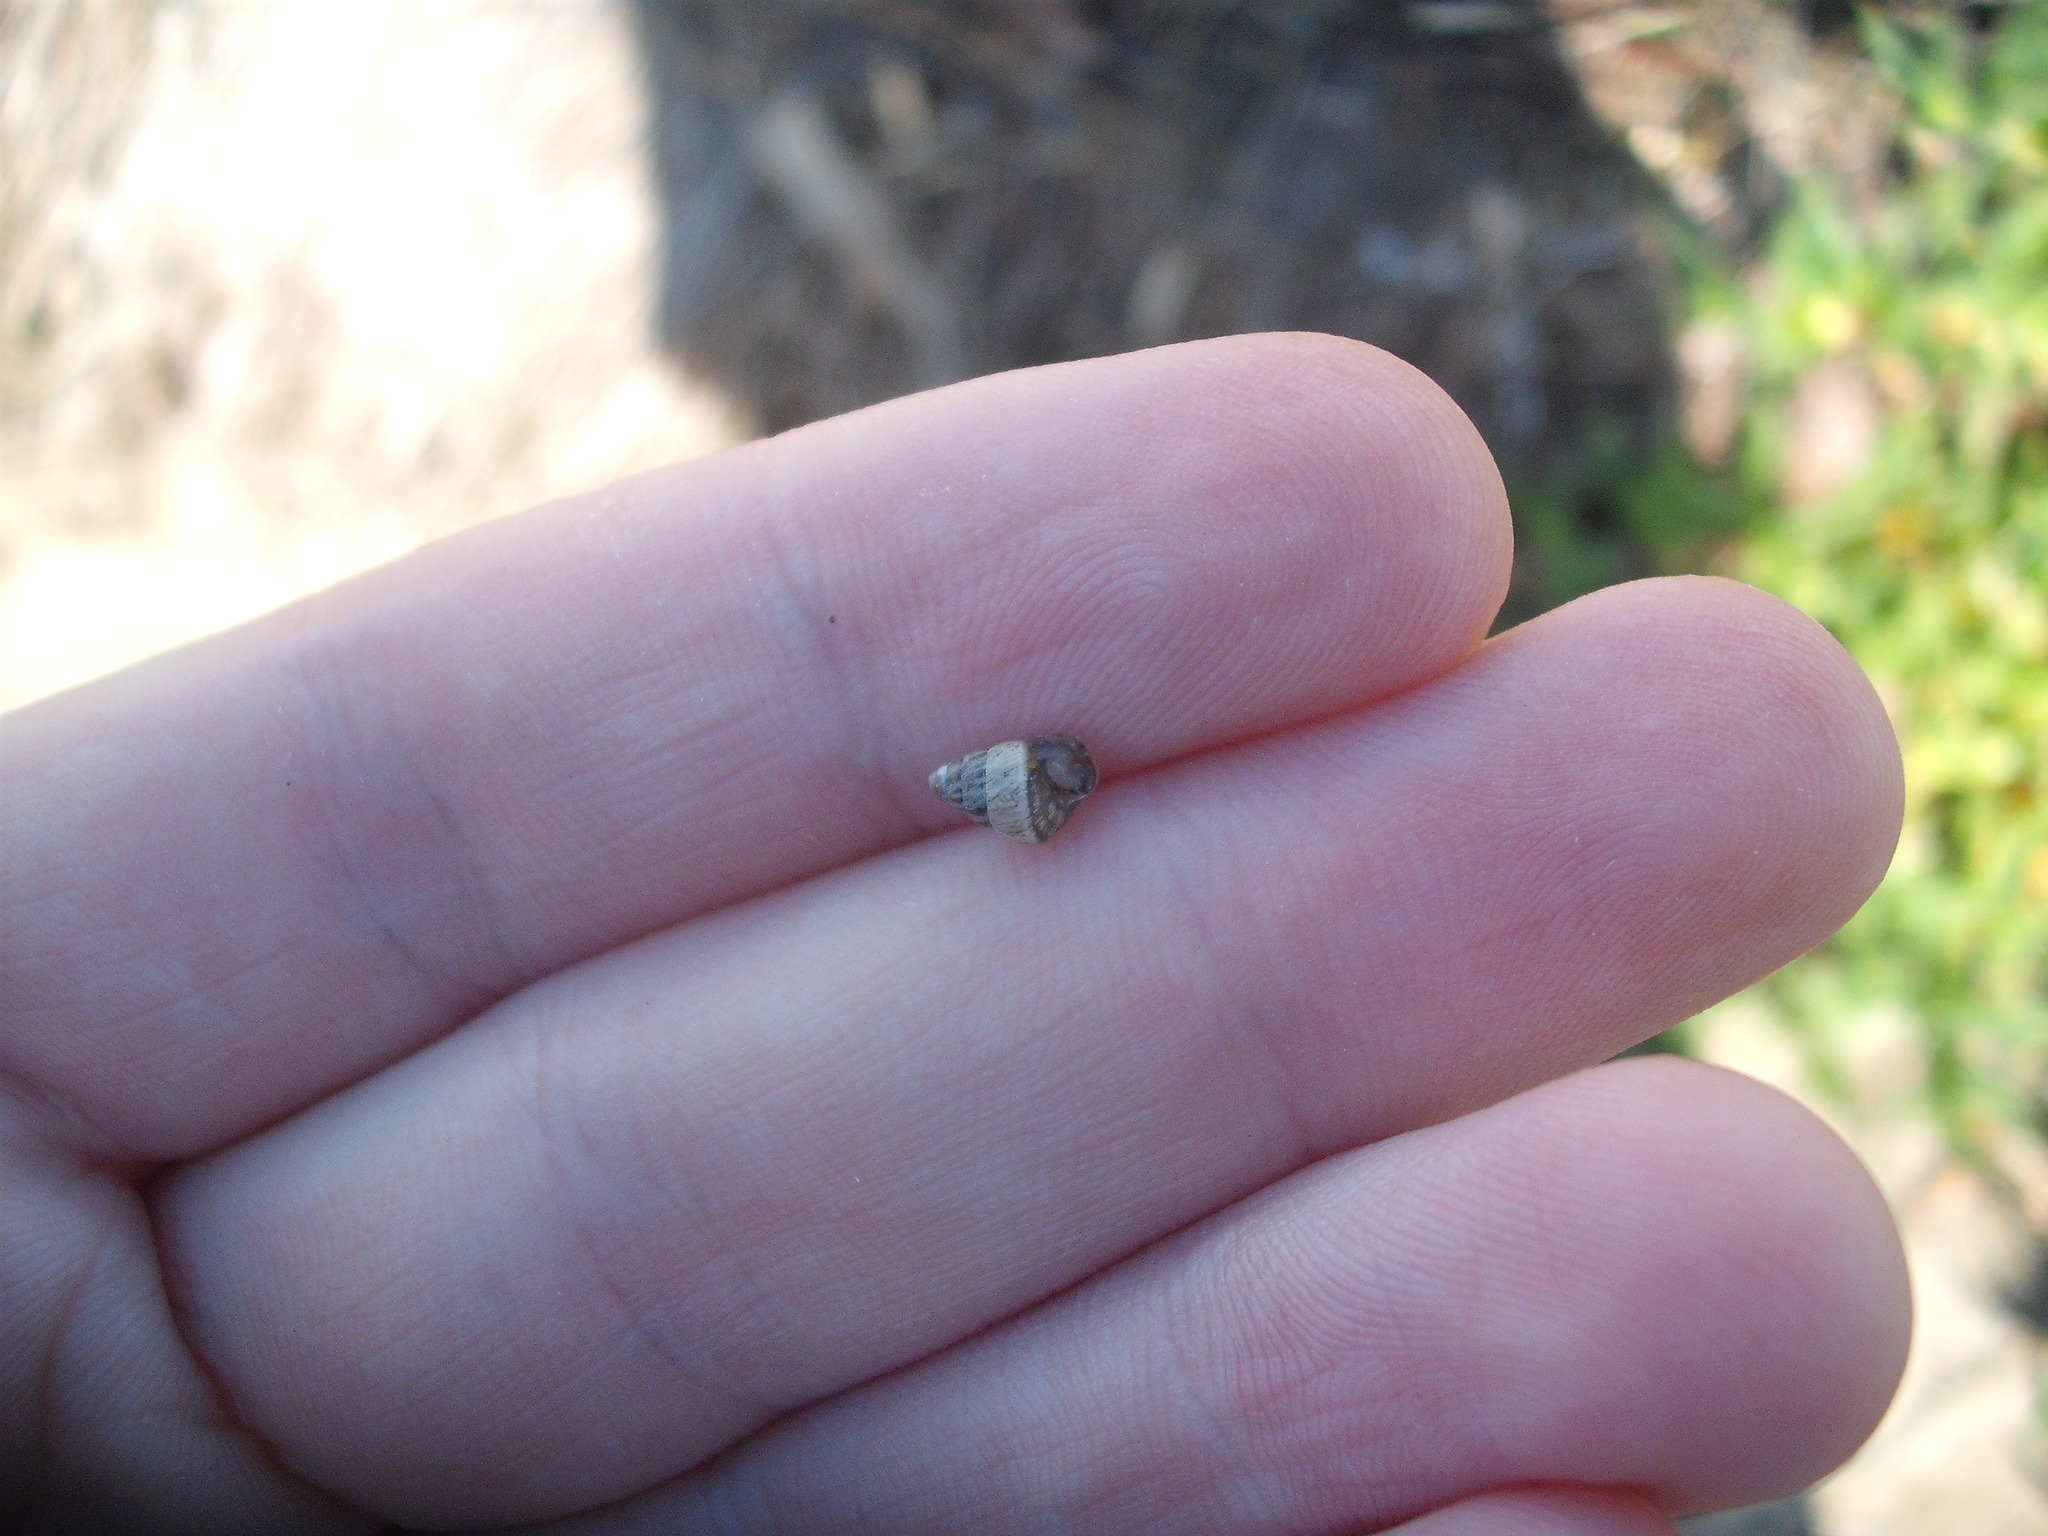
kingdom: Animalia
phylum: Mollusca
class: Gastropoda
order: Stylommatophora
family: Geomitridae
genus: Cochlicella
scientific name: Cochlicella barbara
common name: Potbellied helicellid
